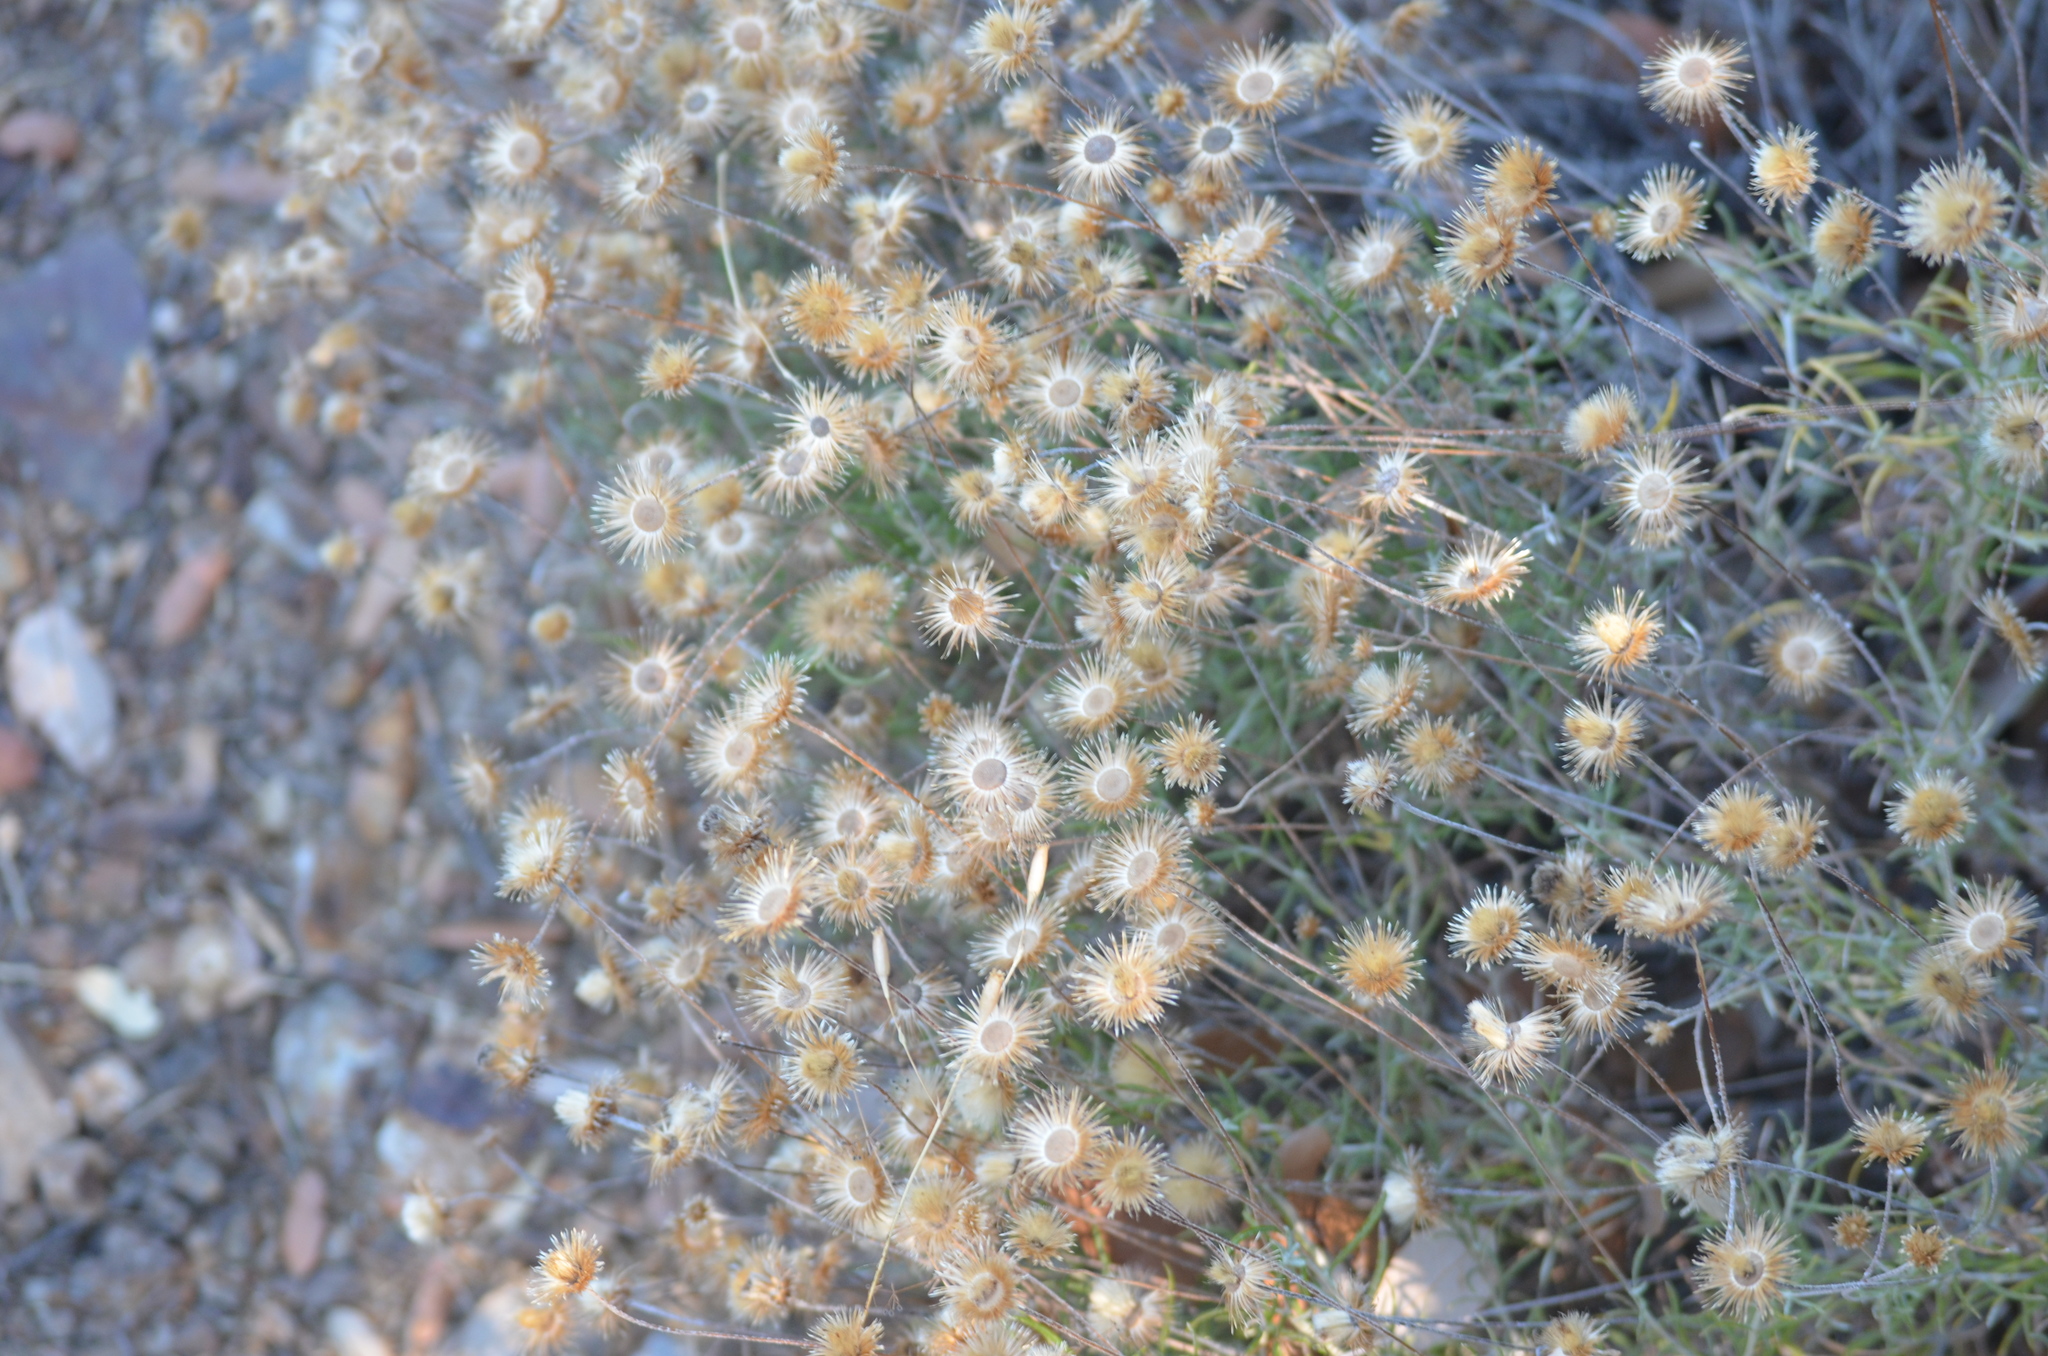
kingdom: Plantae
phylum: Tracheophyta
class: Magnoliopsida
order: Asterales
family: Asteraceae
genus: Phagnalon
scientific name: Phagnalon saxatile
